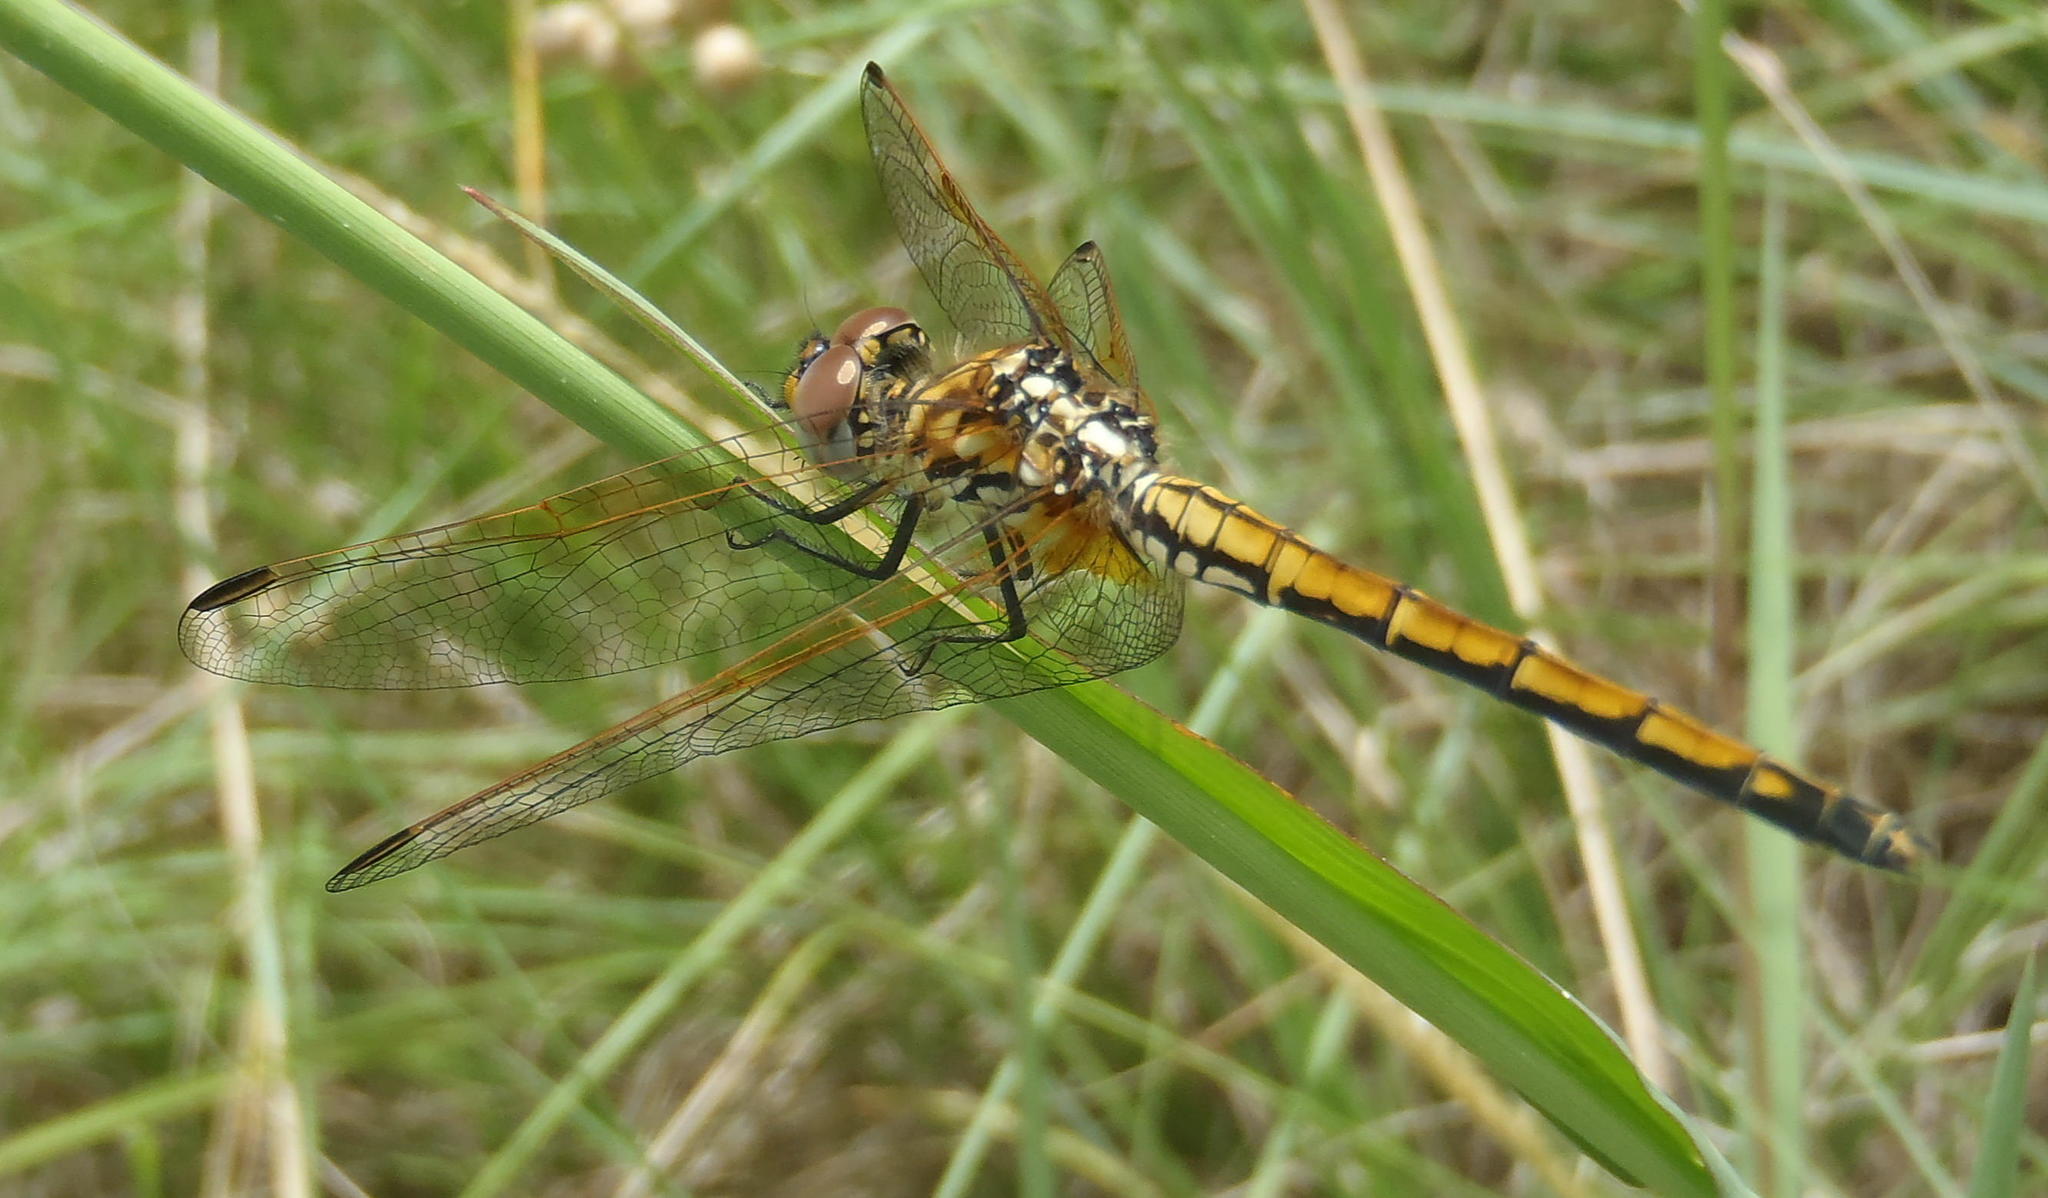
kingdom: Animalia
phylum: Arthropoda
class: Insecta
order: Odonata
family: Libellulidae
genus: Trithemis
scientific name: Trithemis arteriosa
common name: Red-veined dropwing
